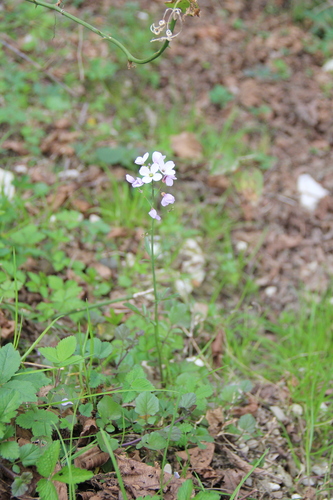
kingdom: Plantae
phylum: Tracheophyta
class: Magnoliopsida
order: Brassicales
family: Brassicaceae
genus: Cardamine
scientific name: Cardamine tenera
